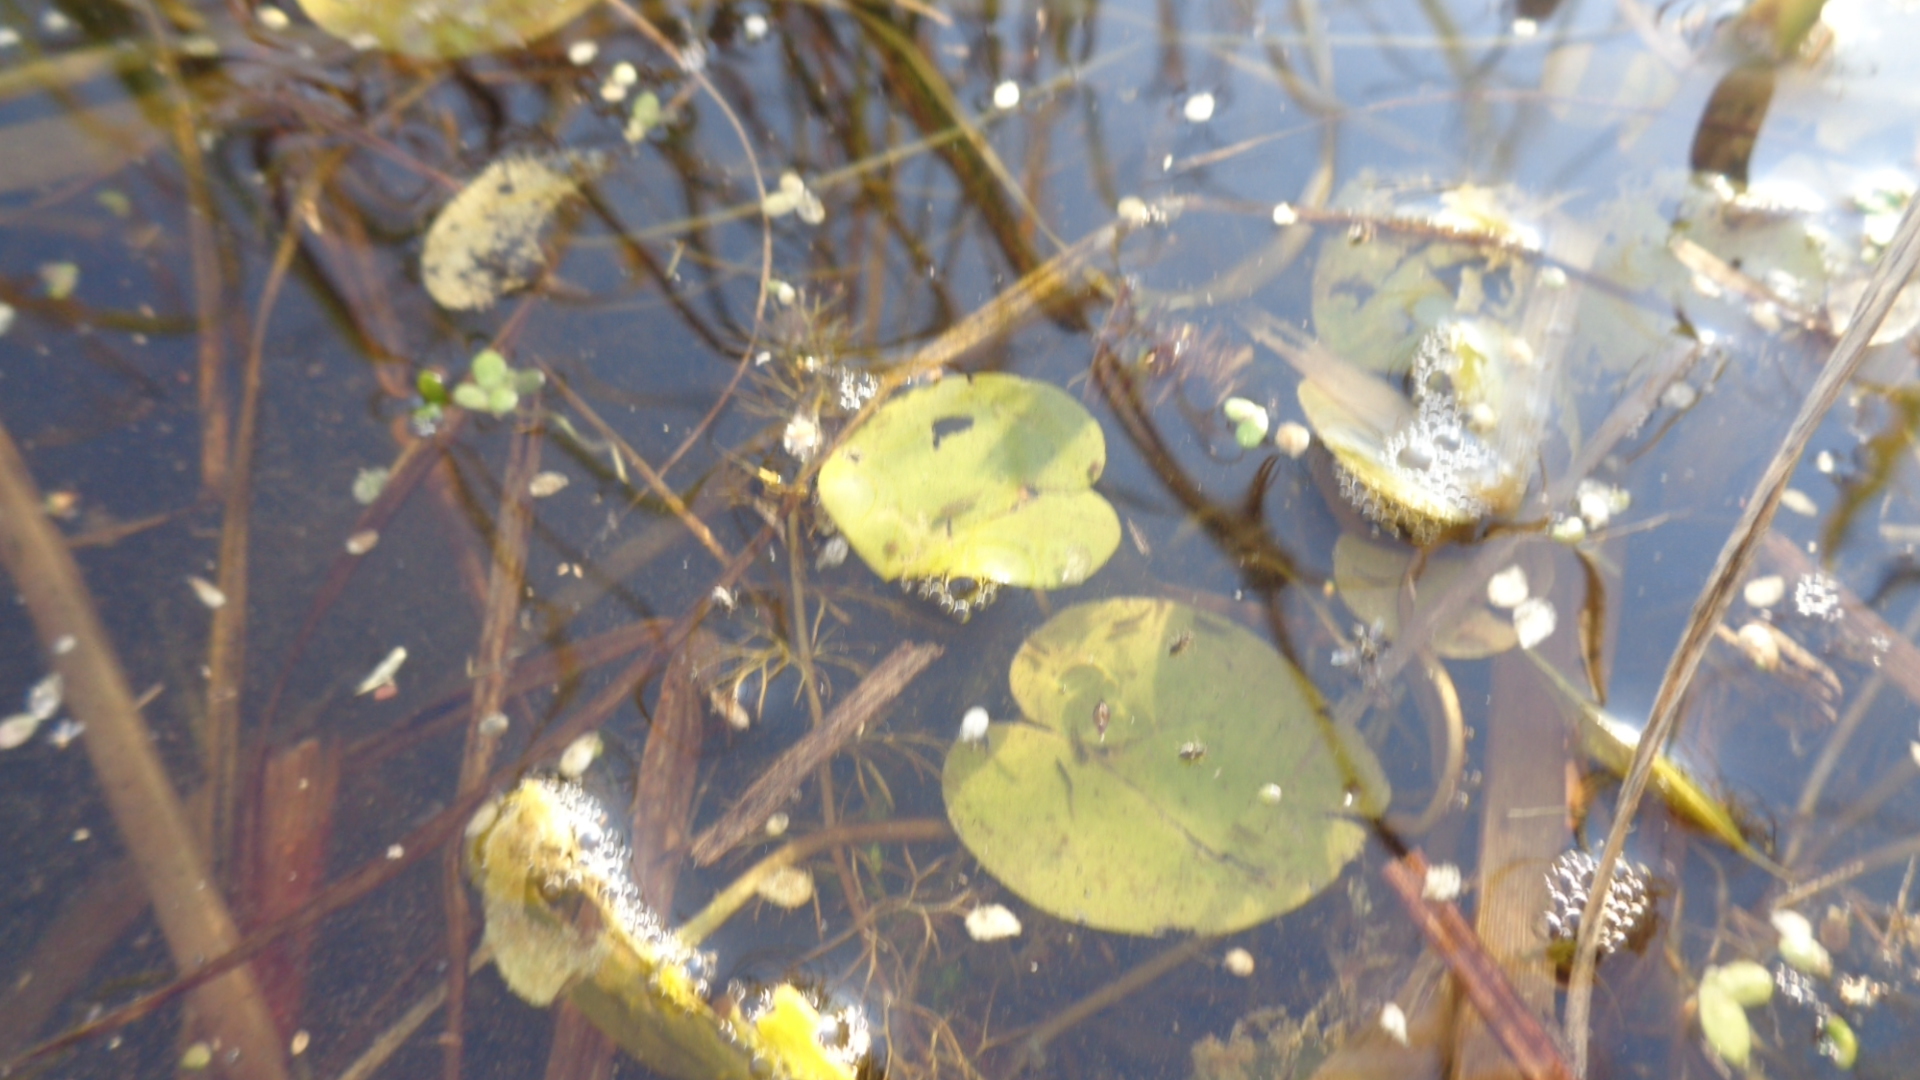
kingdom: Plantae
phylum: Tracheophyta
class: Liliopsida
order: Alismatales
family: Hydrocharitaceae
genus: Hydrocharis
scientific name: Hydrocharis morsus-ranae
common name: Frogbit
